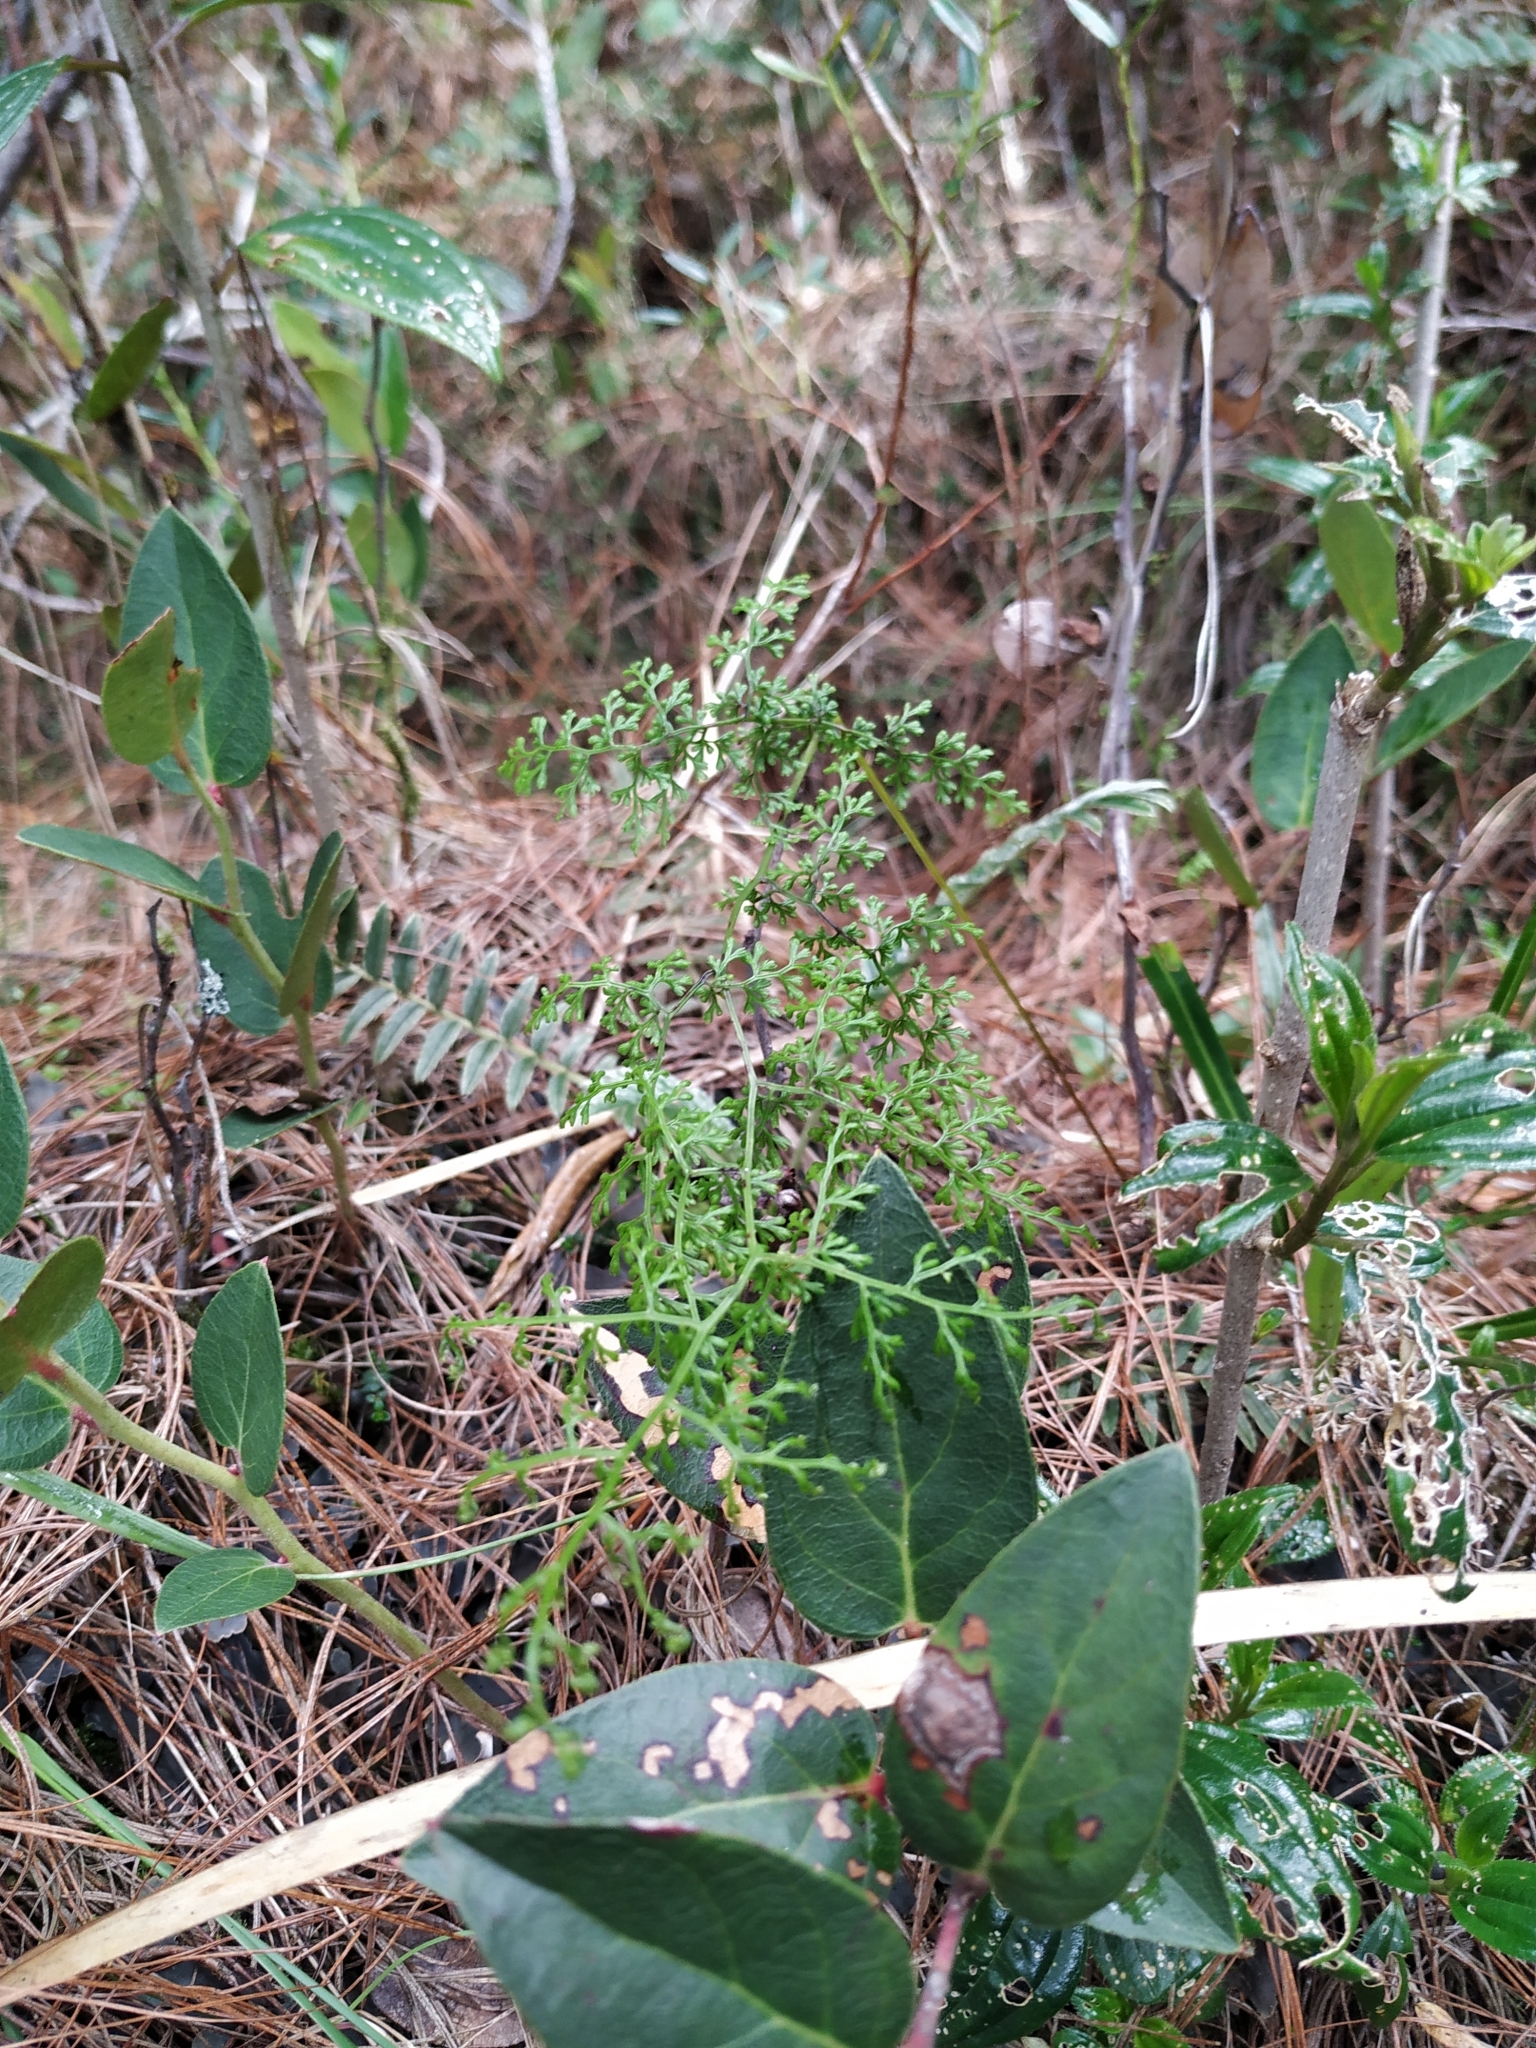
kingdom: Plantae
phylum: Tracheophyta
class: Polypodiopsida
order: Polypodiales
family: Pteridaceae
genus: Jamesonia
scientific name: Jamesonia flexuosa
